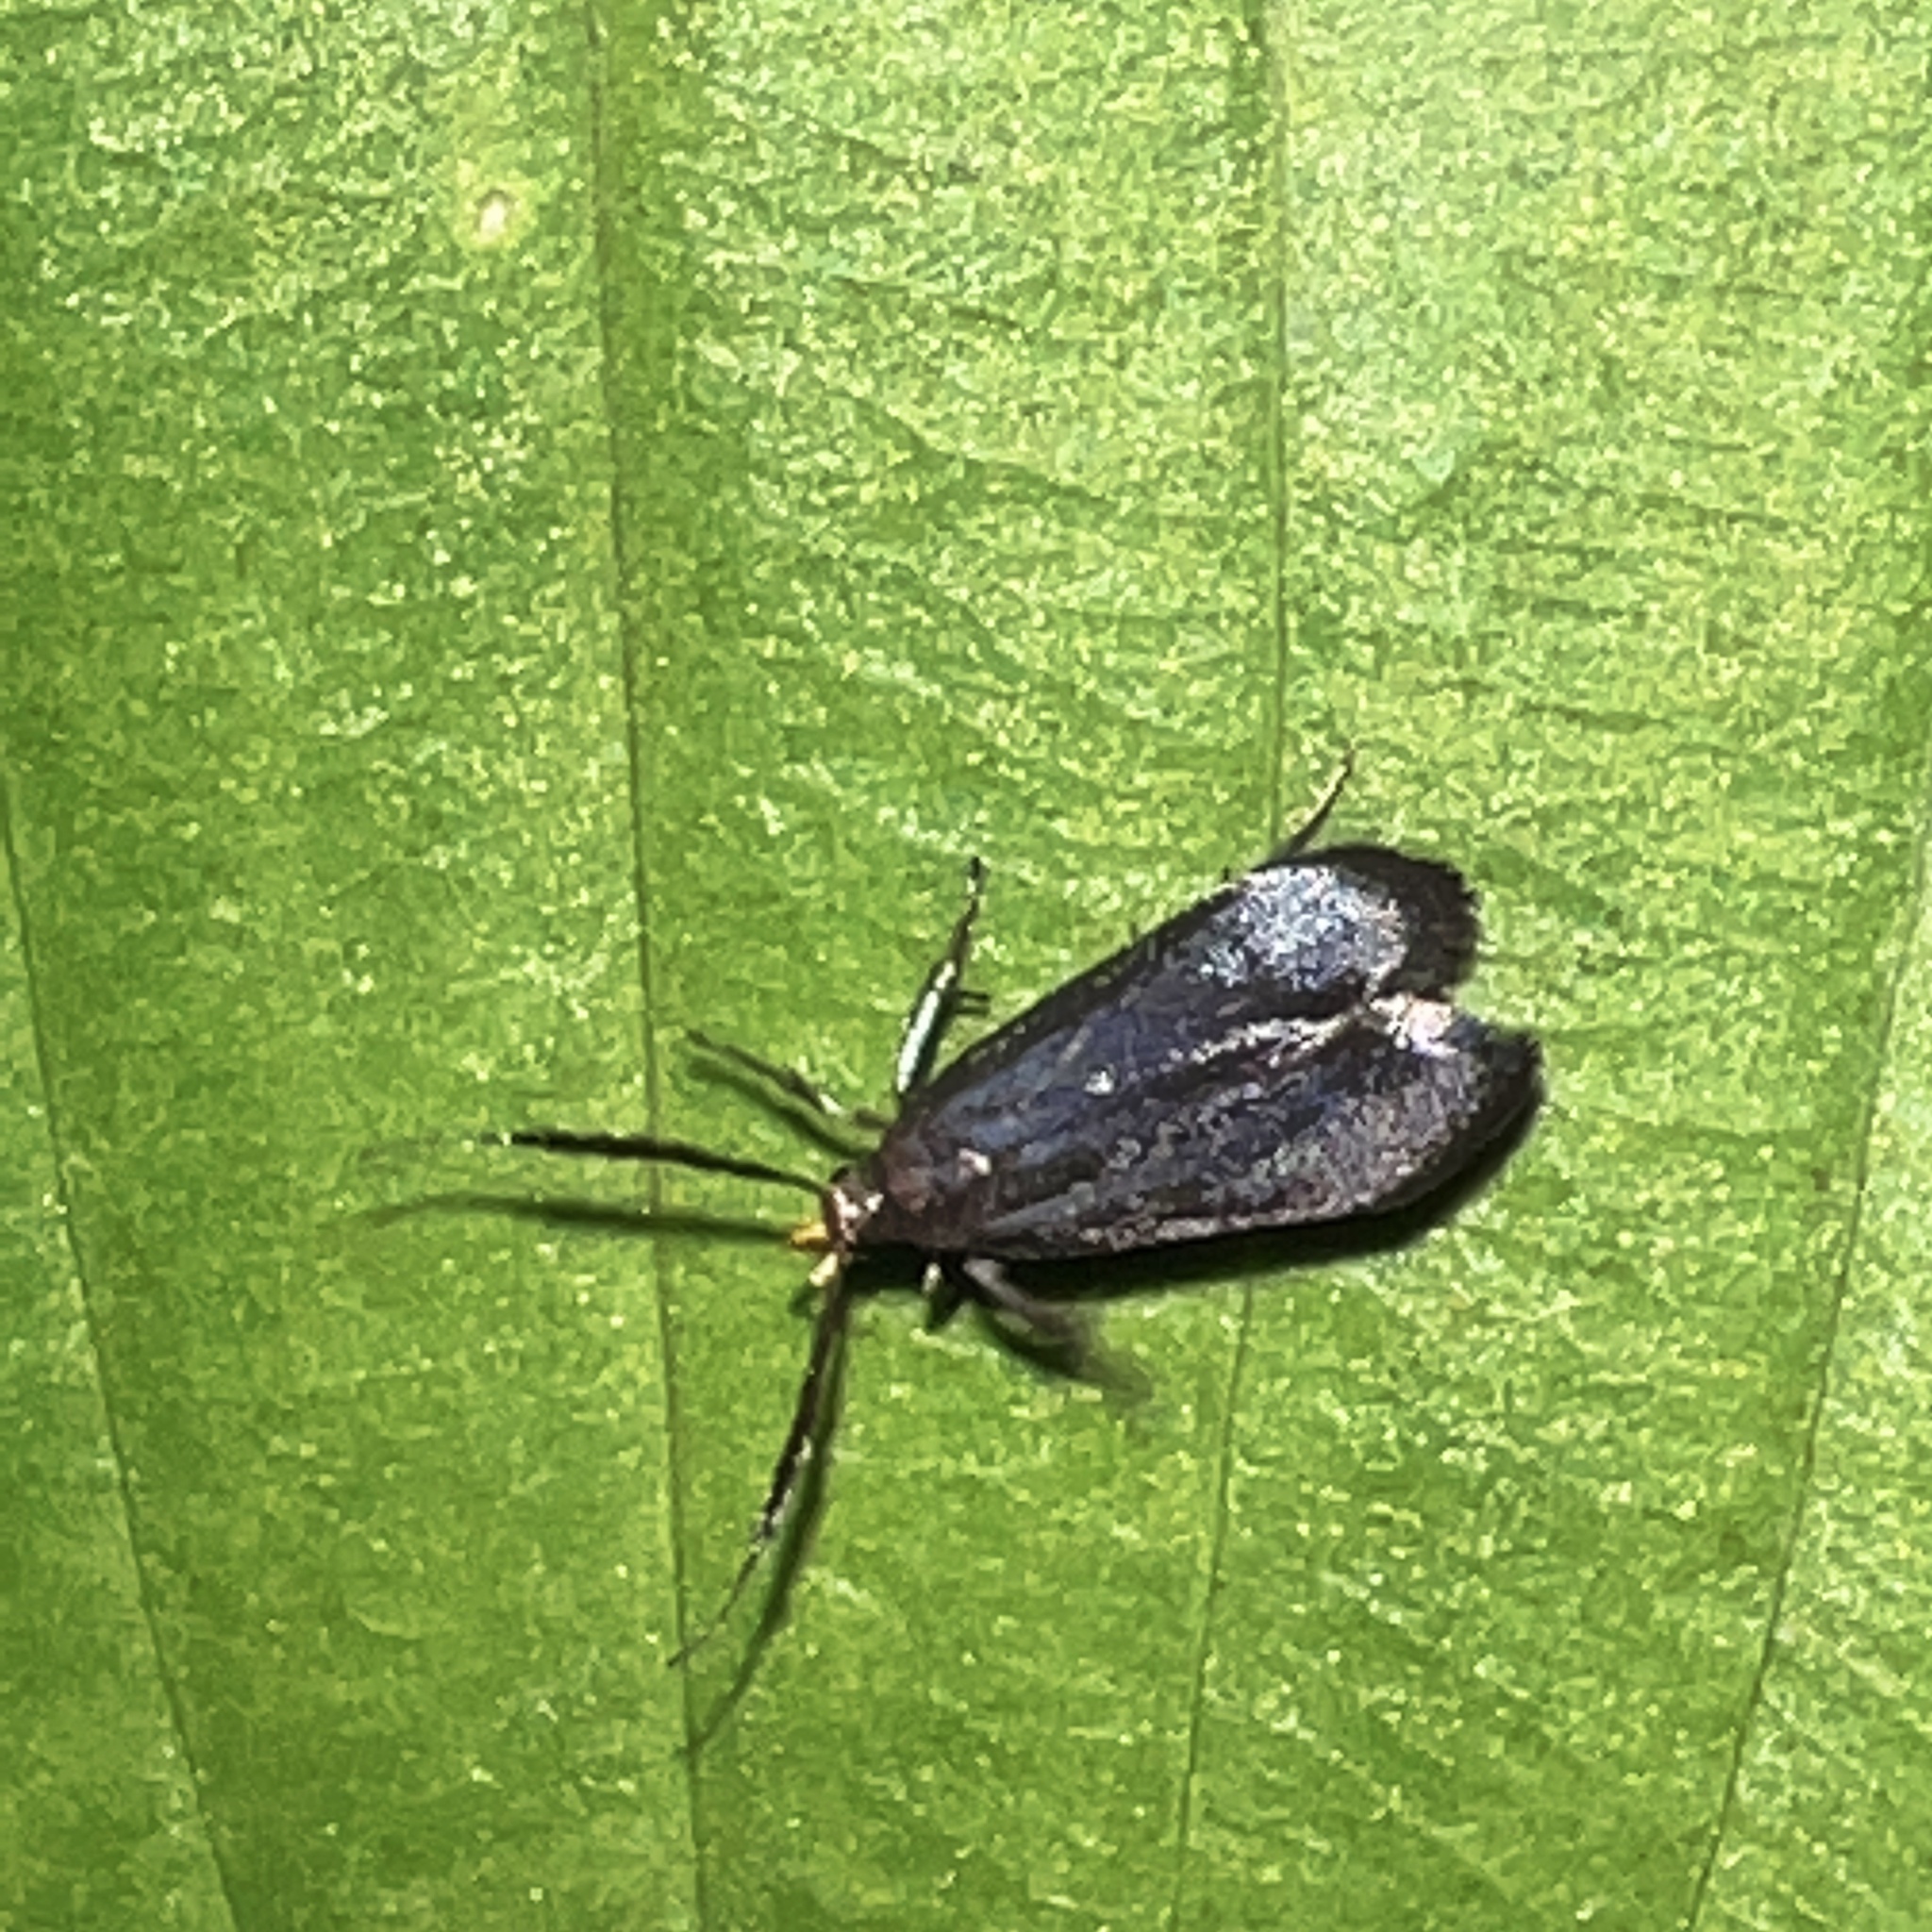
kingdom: Animalia
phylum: Arthropoda
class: Insecta
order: Lepidoptera
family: Gelechiidae
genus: Dichomeris
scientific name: Dichomeris nonstrigella
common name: Little devil moth
